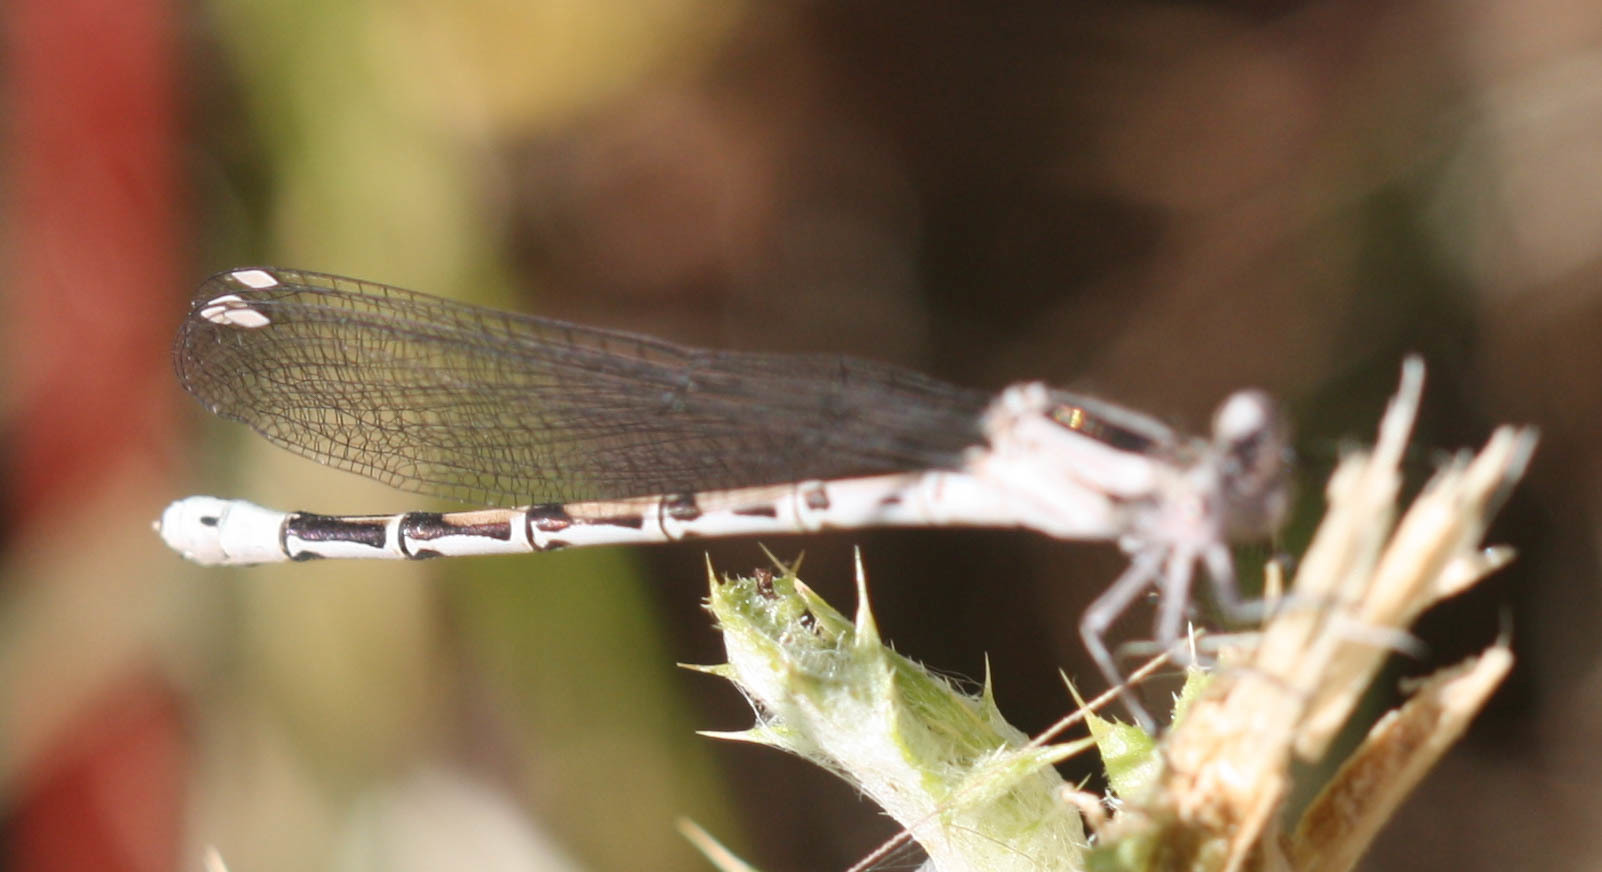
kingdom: Animalia
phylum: Arthropoda
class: Insecta
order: Odonata
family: Coenagrionidae
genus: Argia
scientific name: Argia vivida
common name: Vivid dancer
